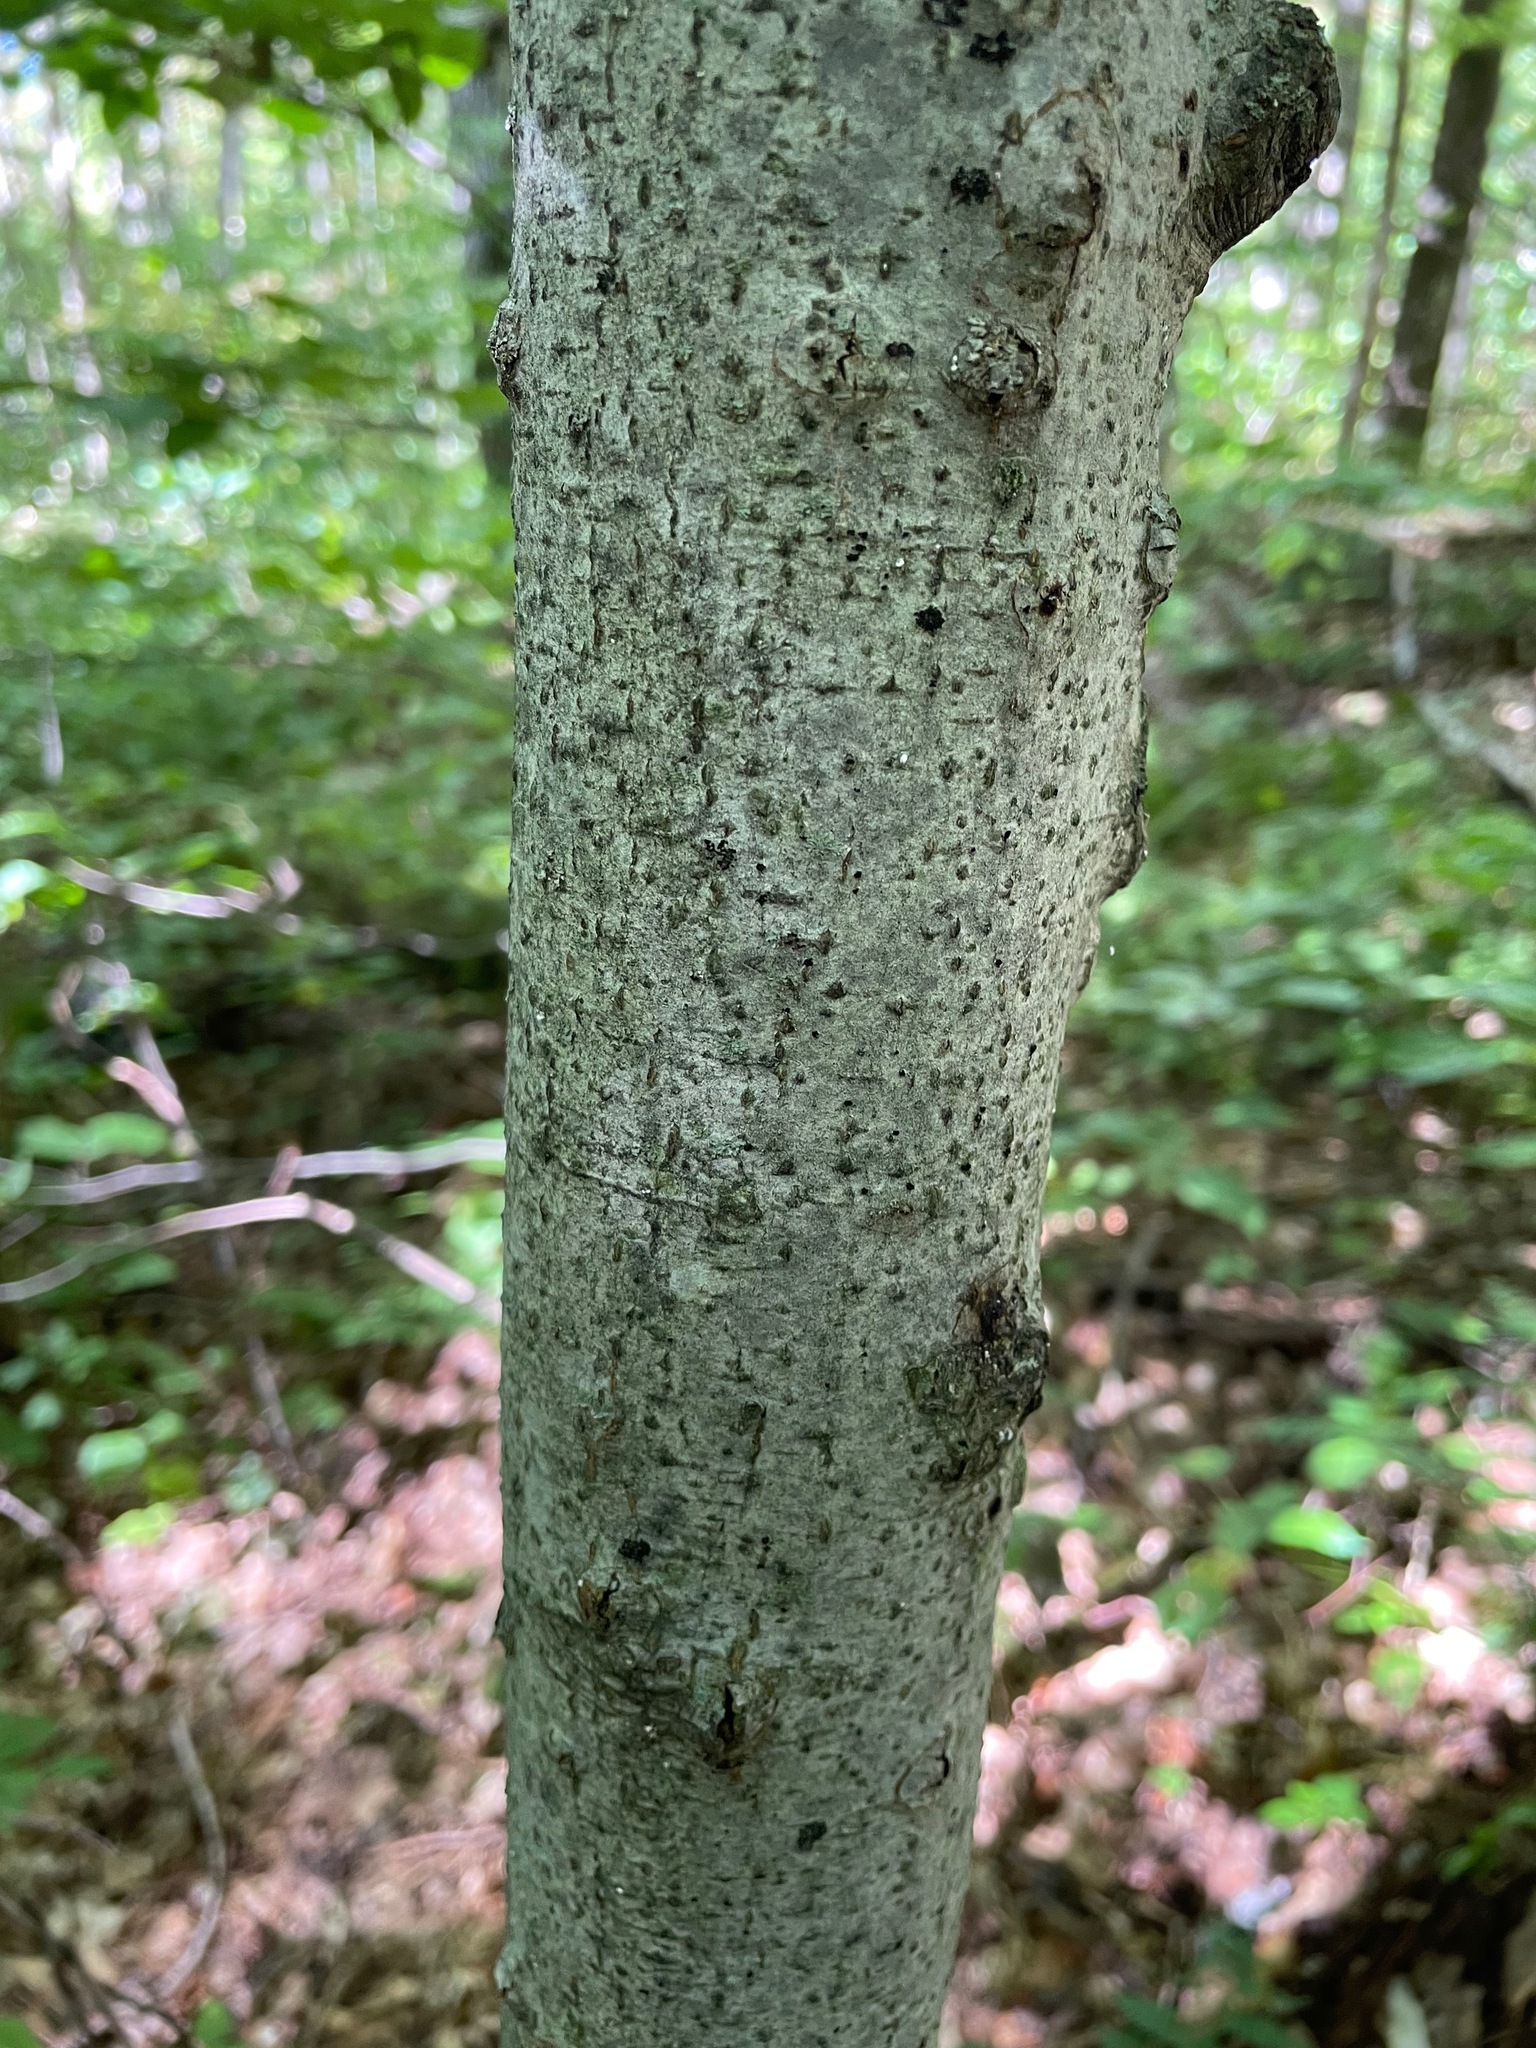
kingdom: Plantae
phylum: Tracheophyta
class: Magnoliopsida
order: Fagales
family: Fagaceae
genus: Fagus
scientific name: Fagus grandifolia
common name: American beech
